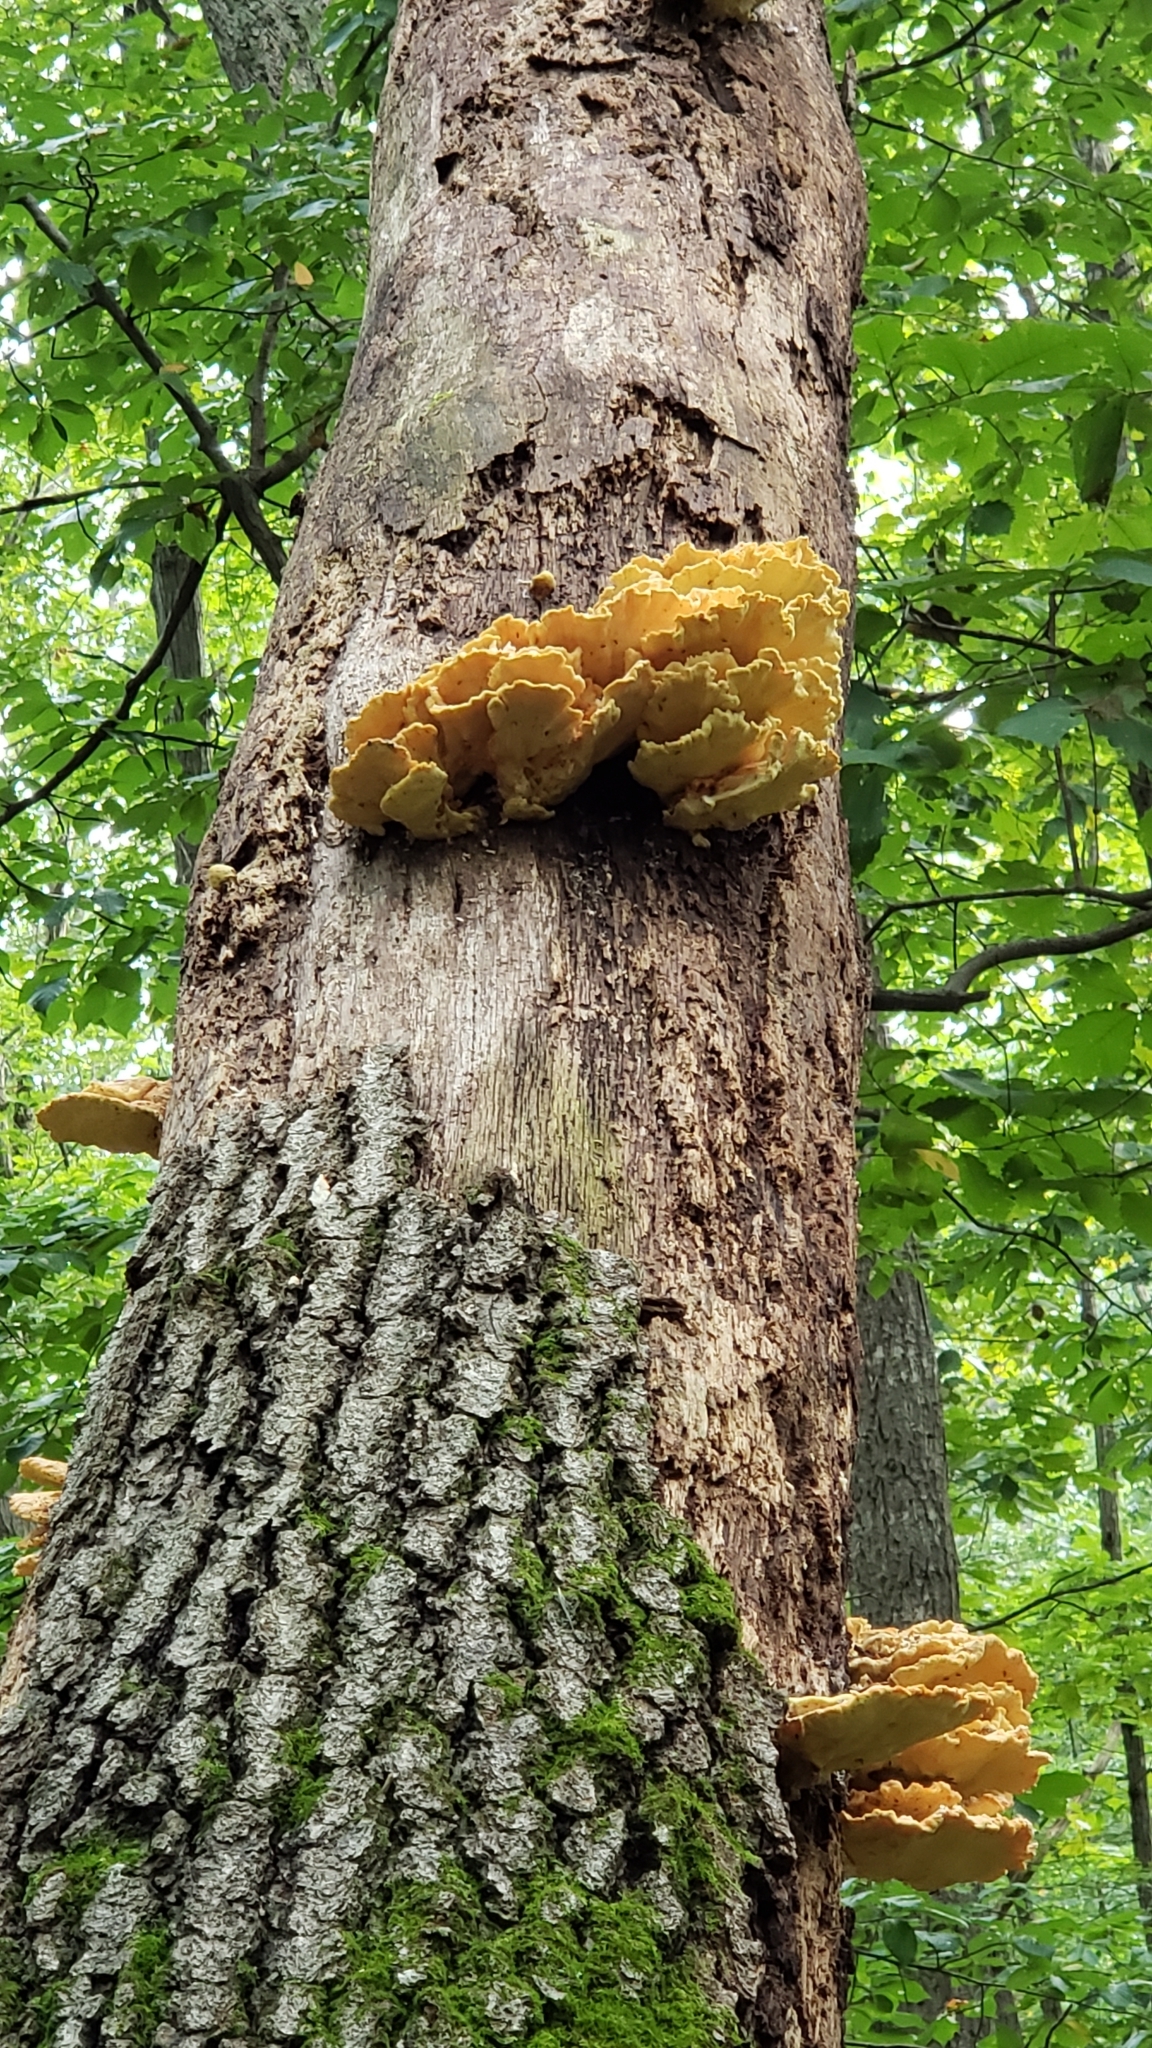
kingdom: Fungi
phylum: Basidiomycota
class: Agaricomycetes
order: Polyporales
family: Laetiporaceae
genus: Laetiporus
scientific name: Laetiporus sulphureus
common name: Chicken of the woods
